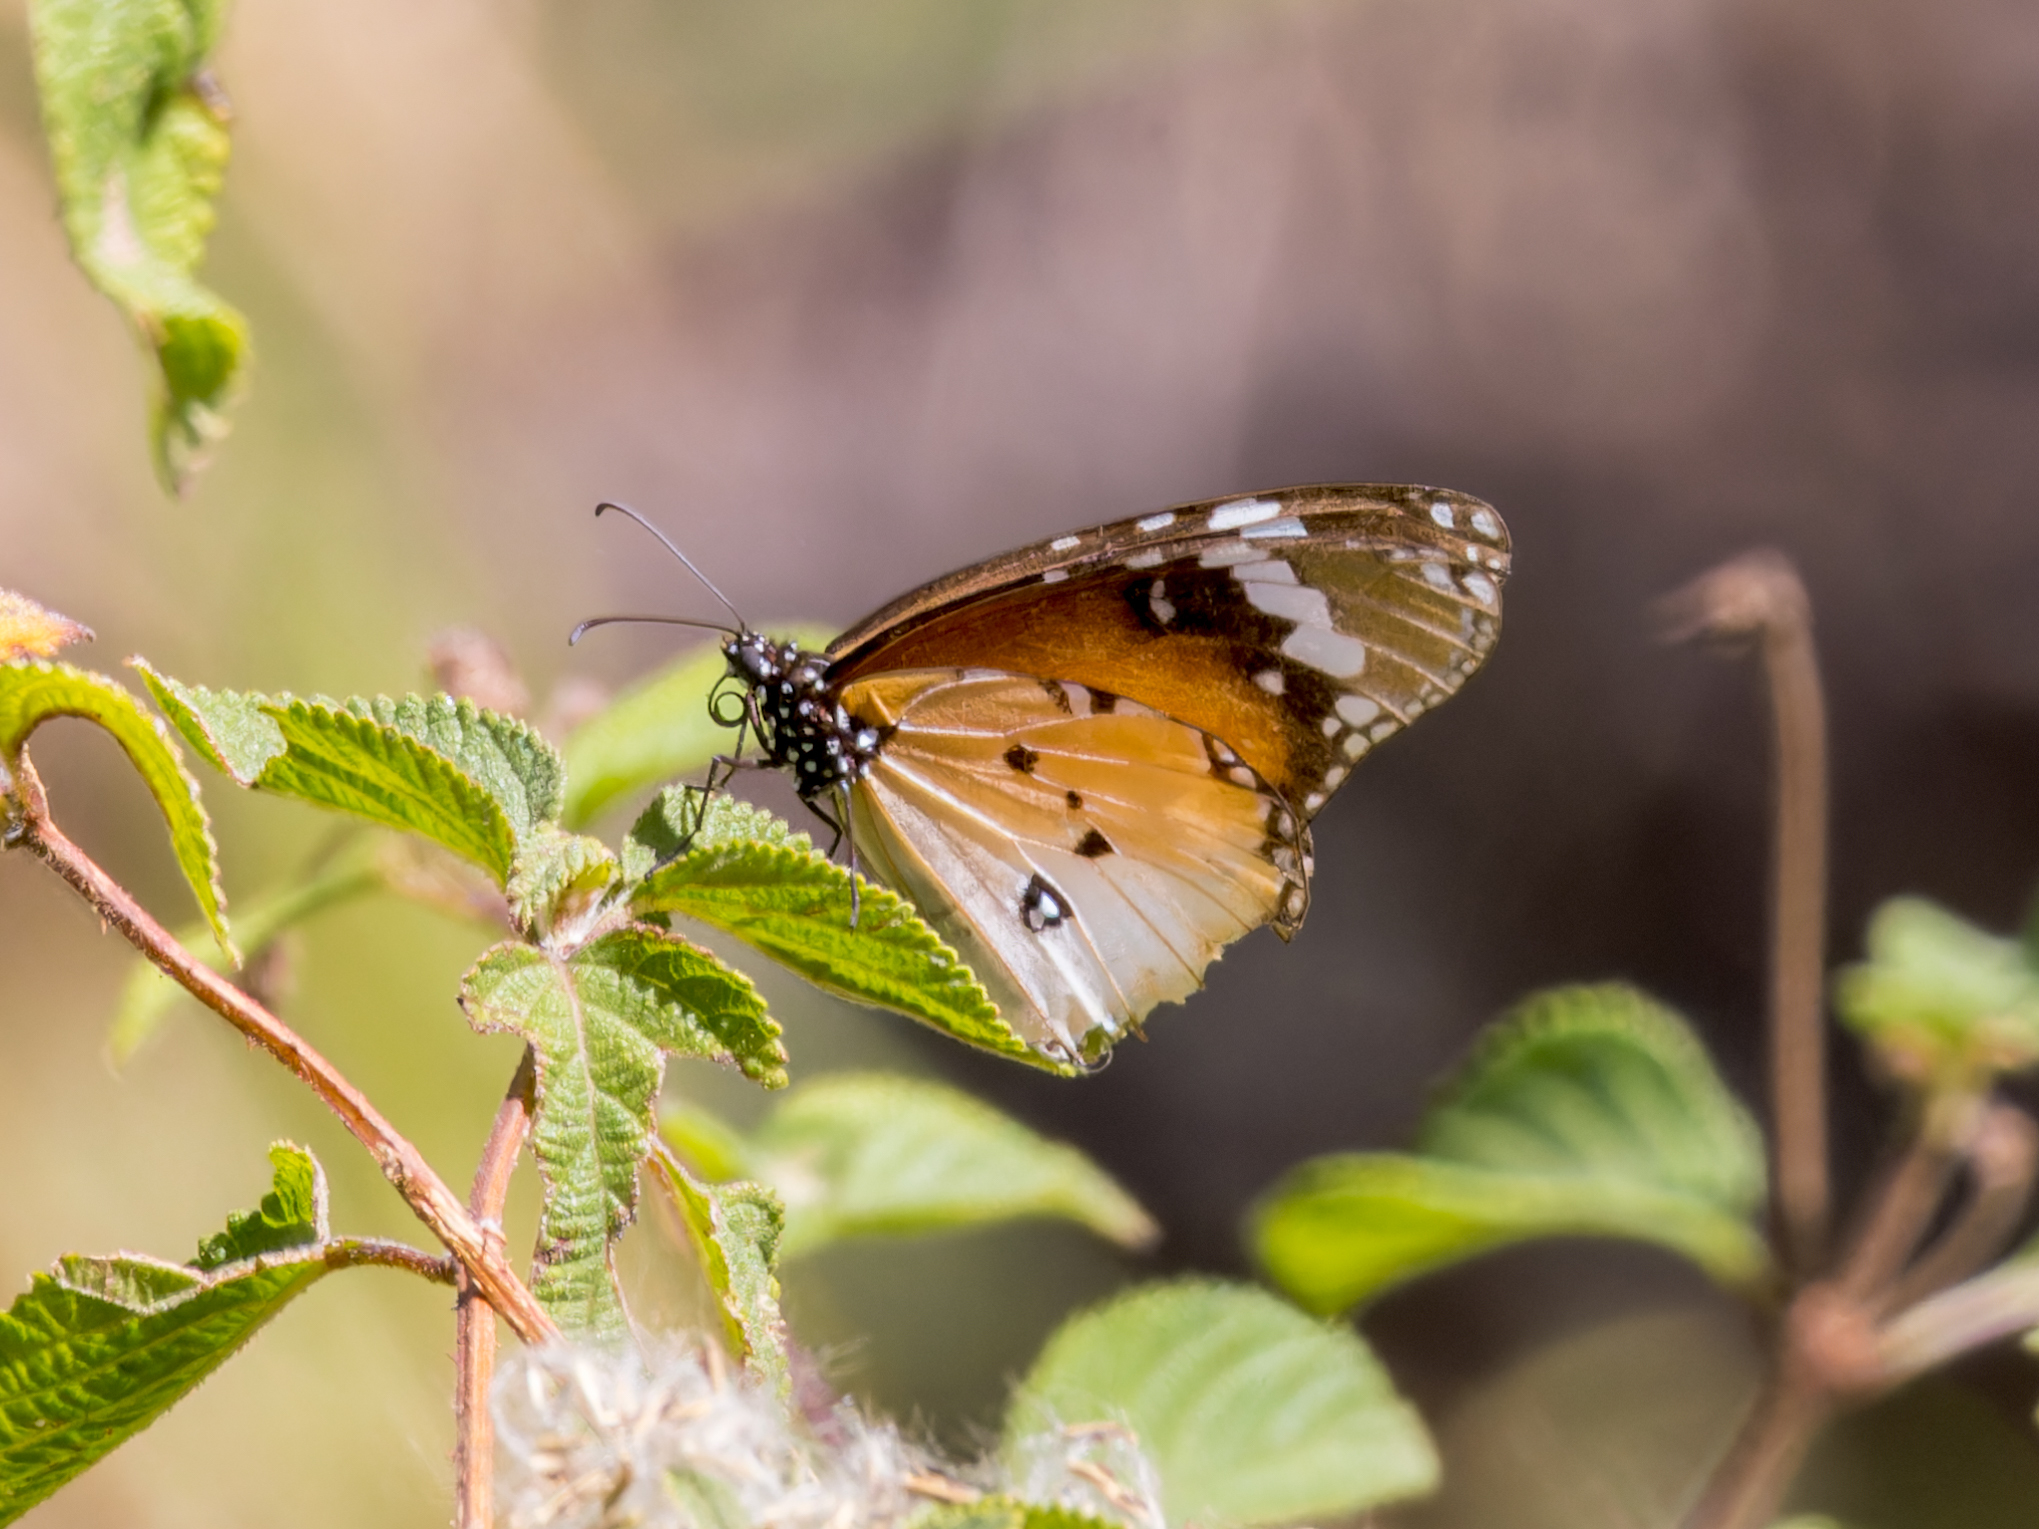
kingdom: Animalia
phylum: Arthropoda
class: Insecta
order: Lepidoptera
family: Nymphalidae
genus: Danaus
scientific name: Danaus chrysippus
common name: Plain tiger
